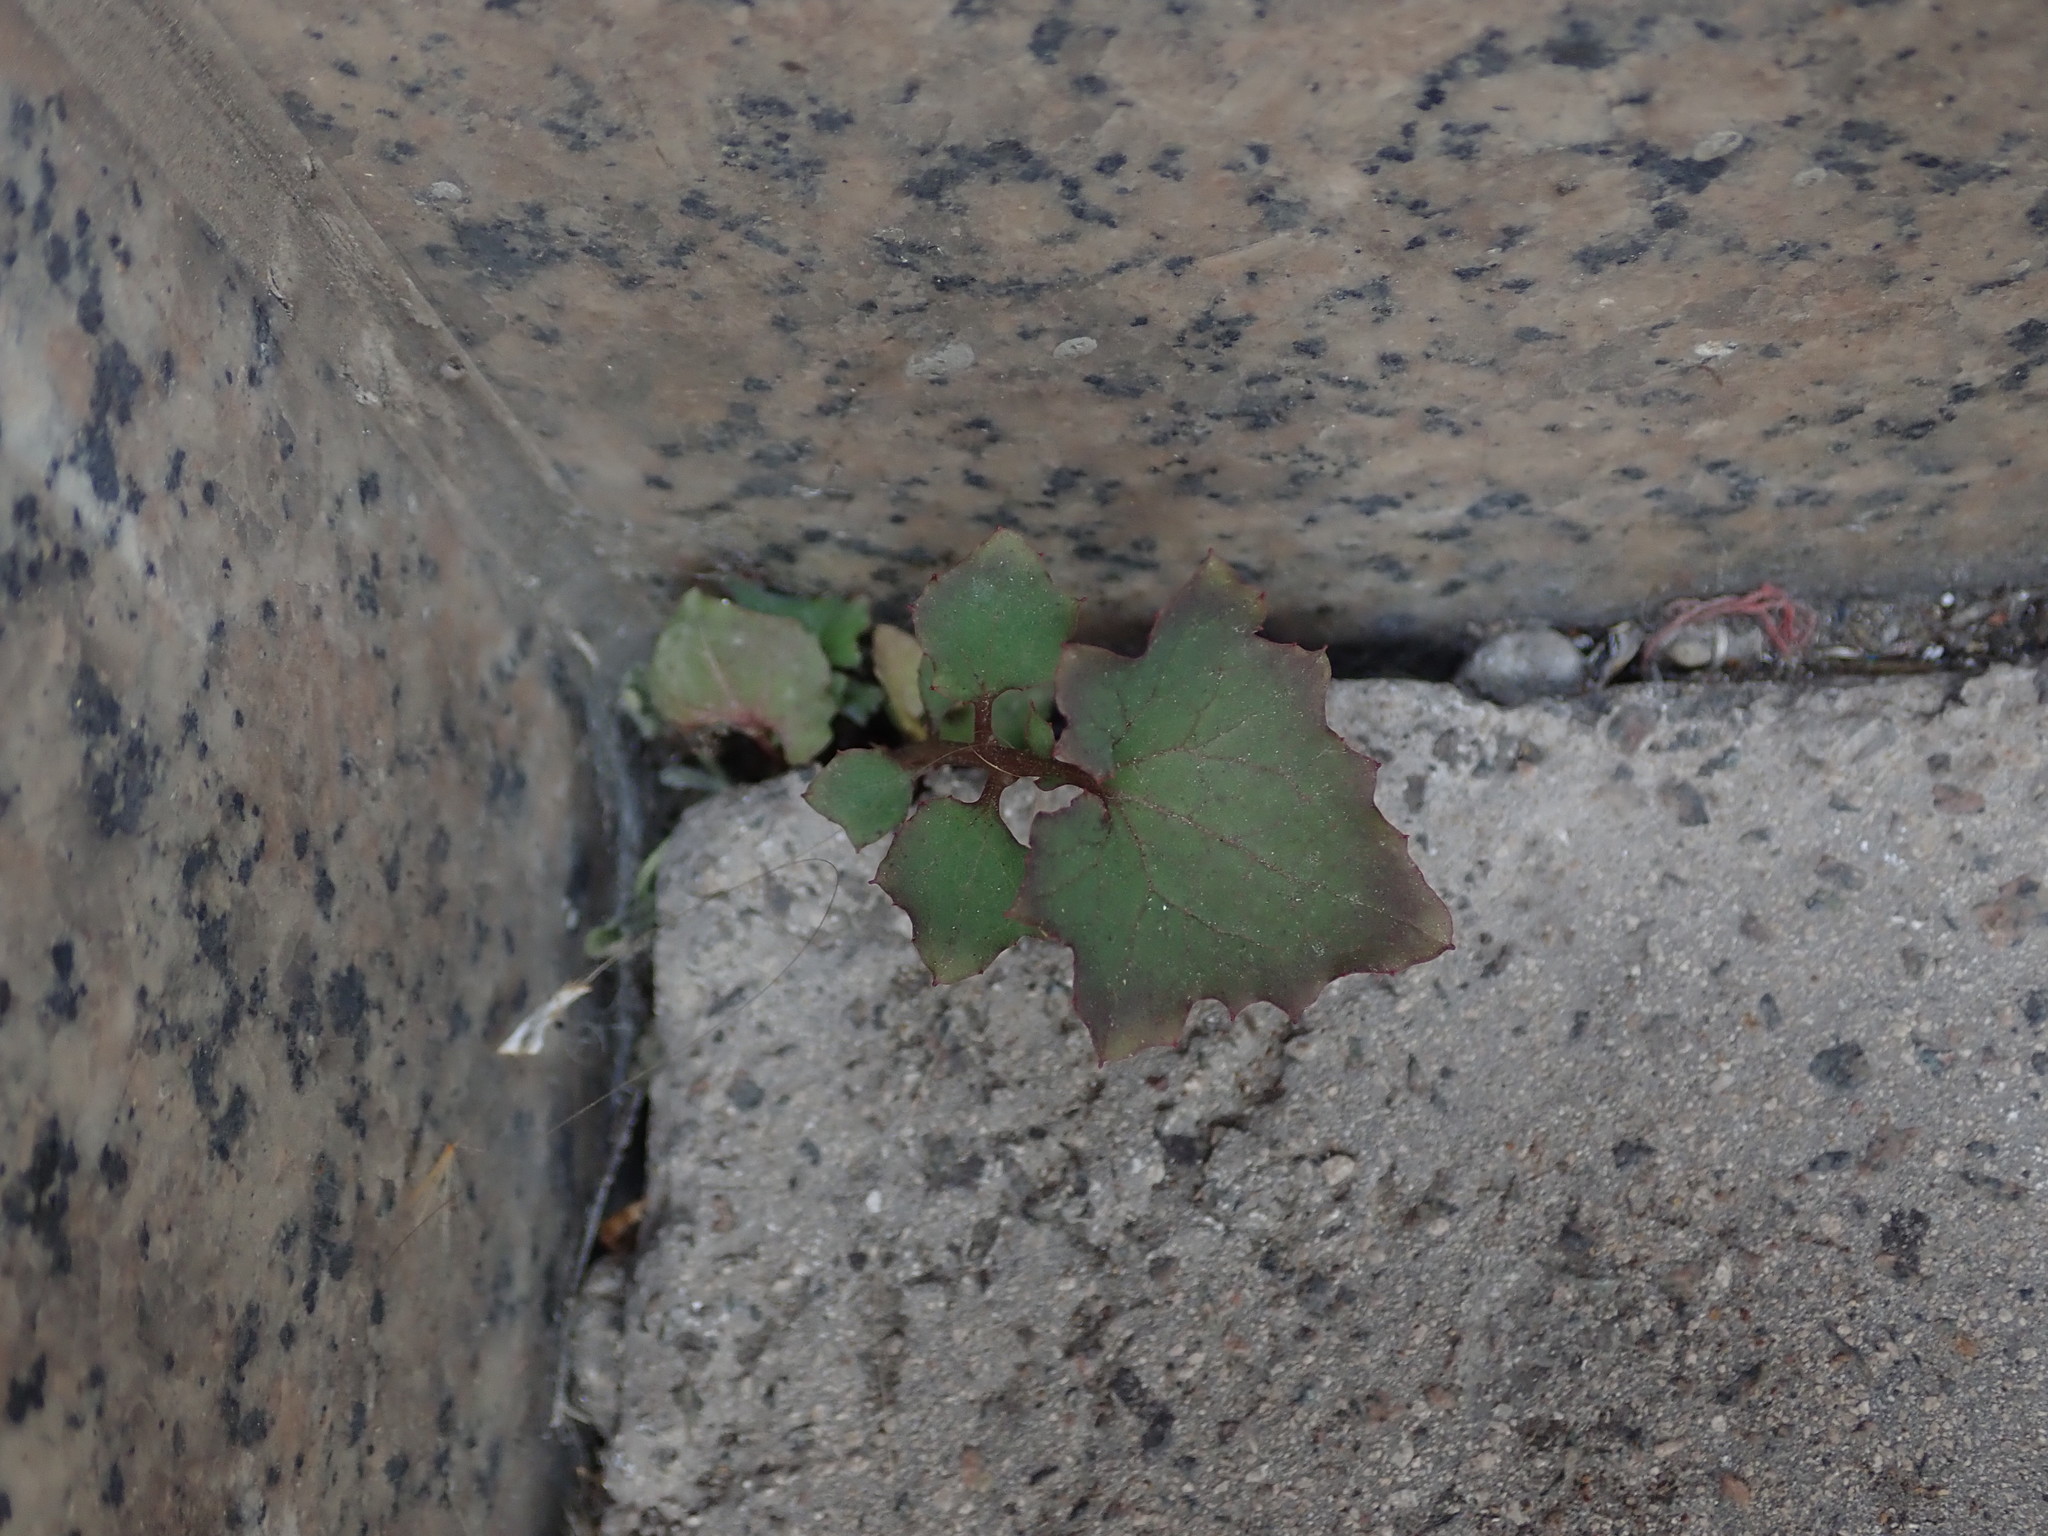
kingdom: Plantae
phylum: Tracheophyta
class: Magnoliopsida
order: Asterales
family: Asteraceae
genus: Mycelis
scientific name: Mycelis muralis
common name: Wall lettuce
